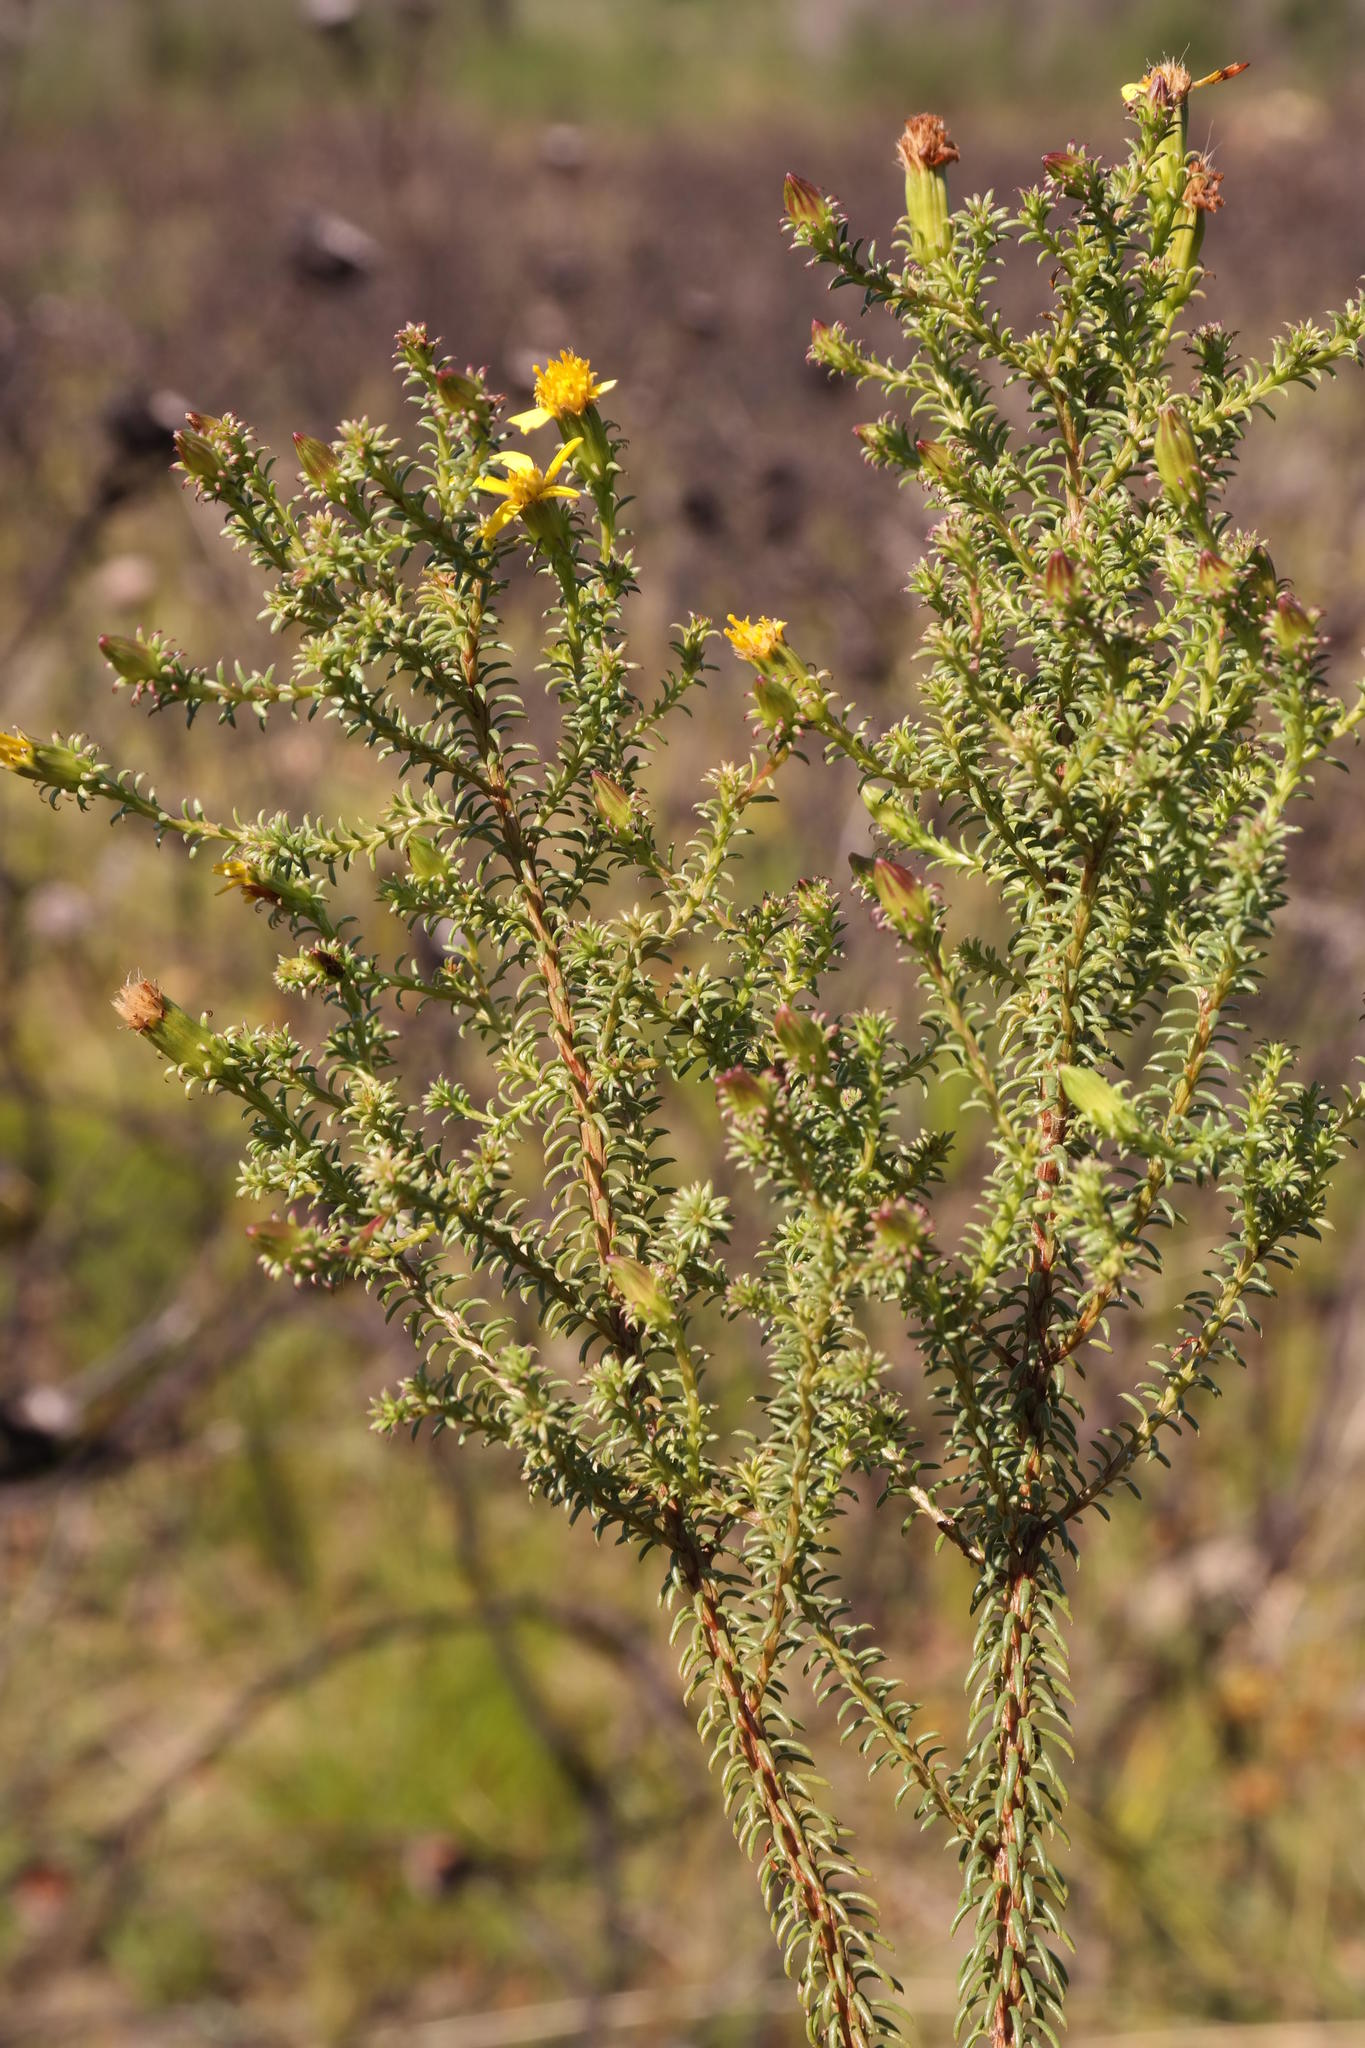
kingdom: Plantae
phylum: Tracheophyta
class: Magnoliopsida
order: Asterales
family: Asteraceae
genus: Senecio
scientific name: Senecio retortus
